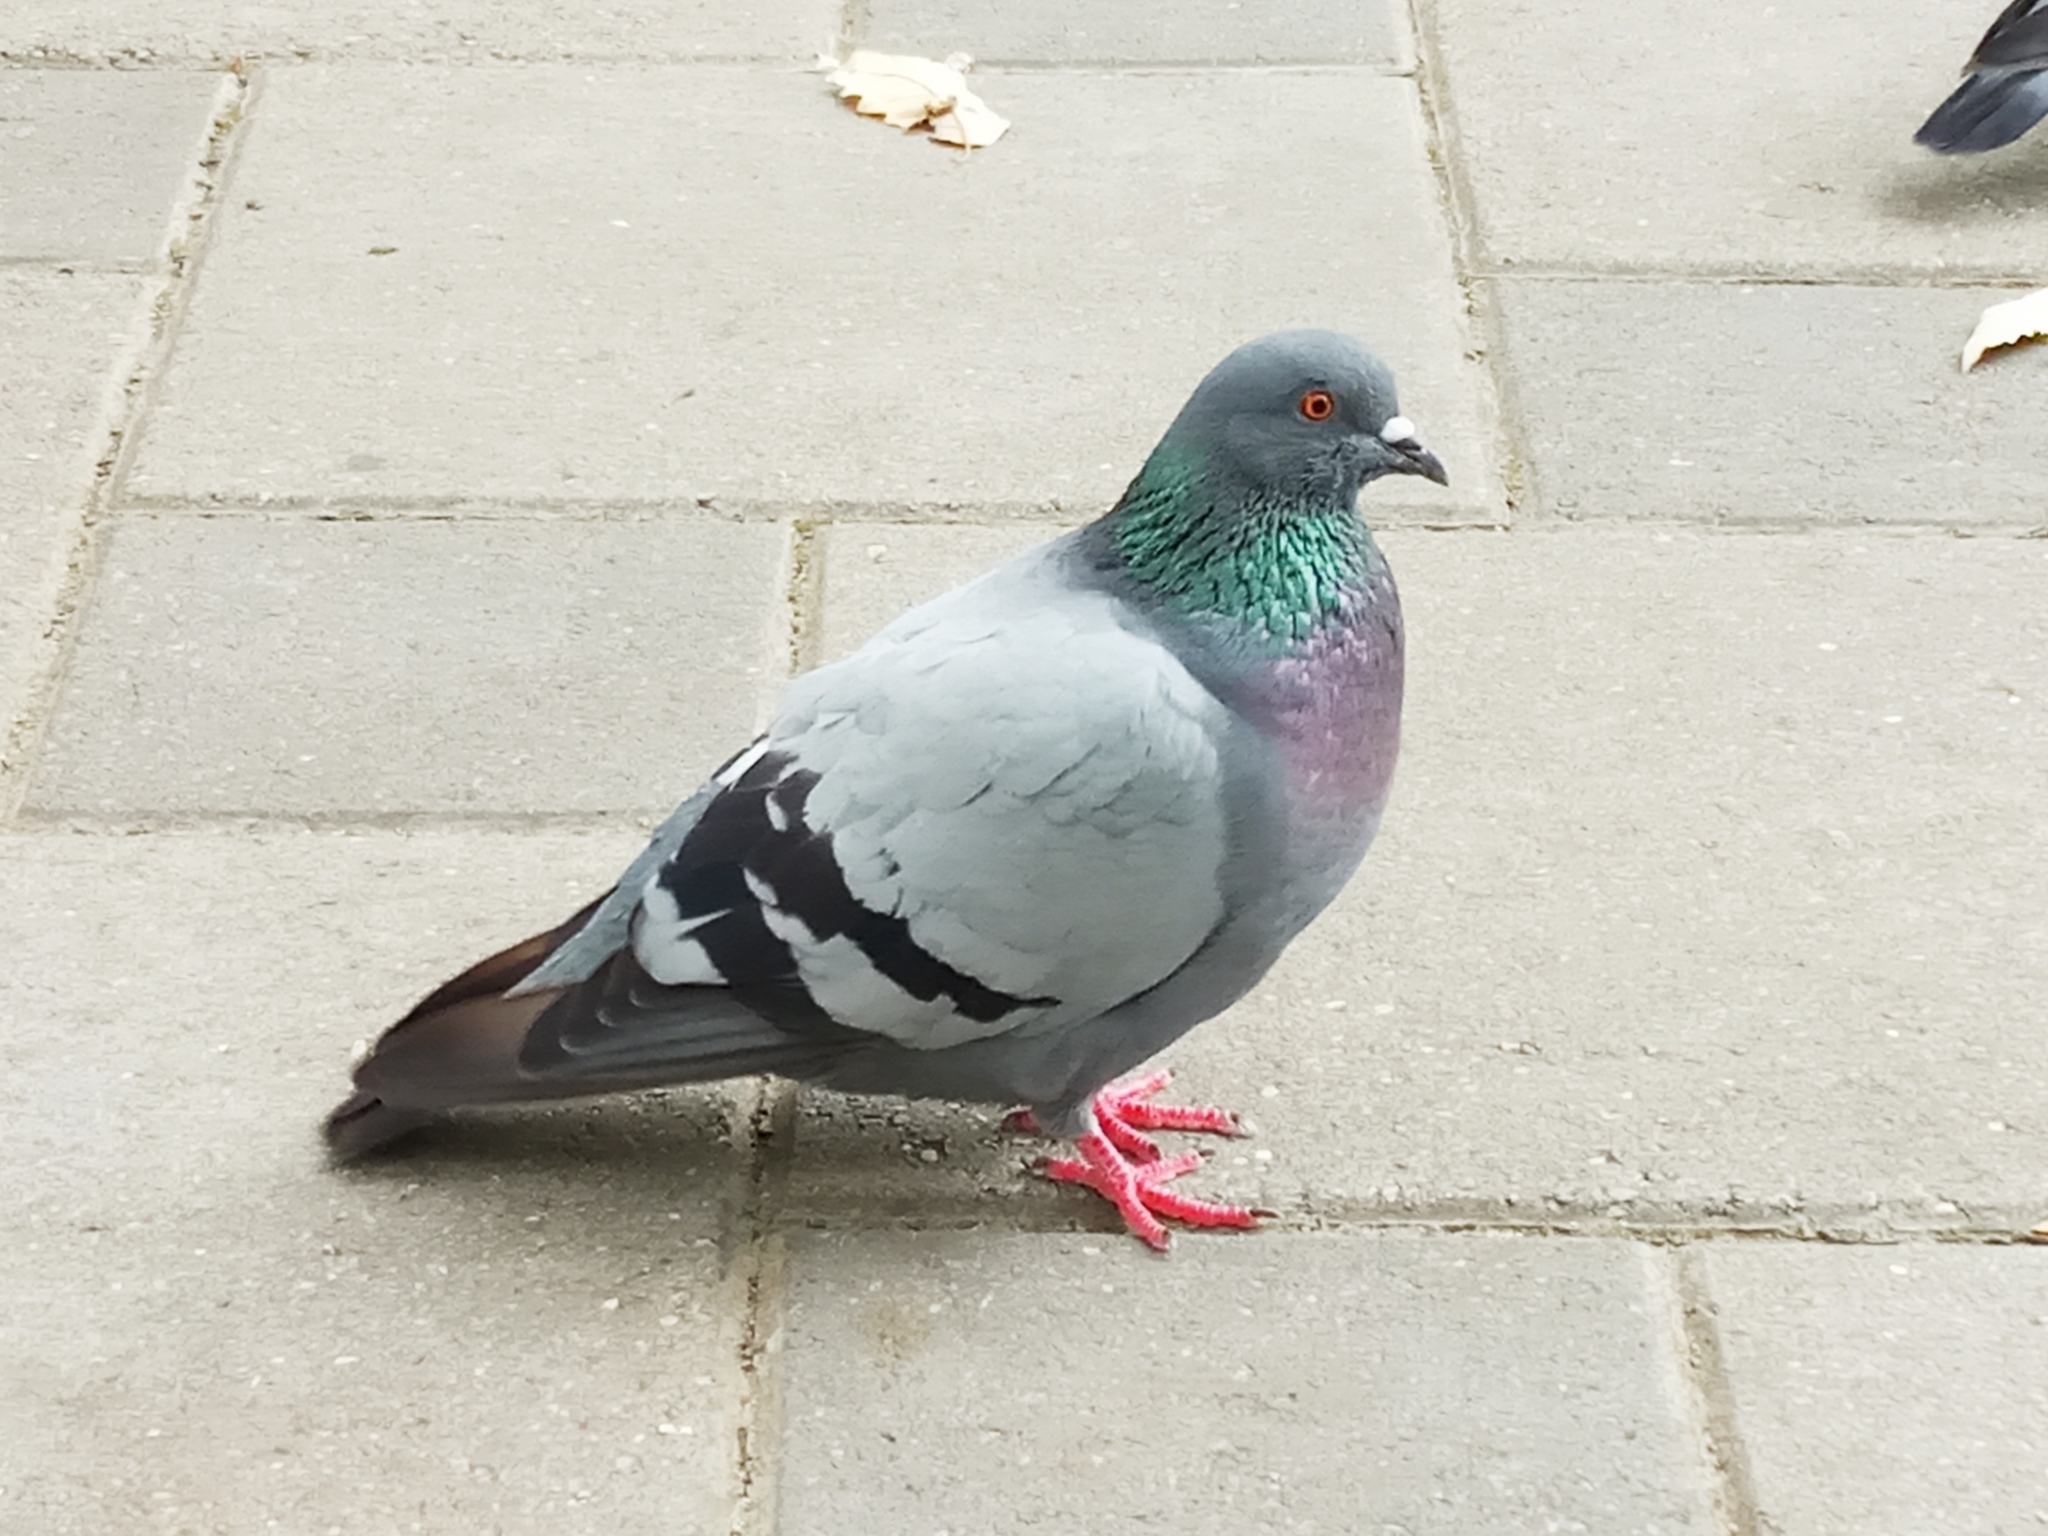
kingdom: Animalia
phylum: Chordata
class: Aves
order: Columbiformes
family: Columbidae
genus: Columba
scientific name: Columba livia
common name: Rock pigeon
